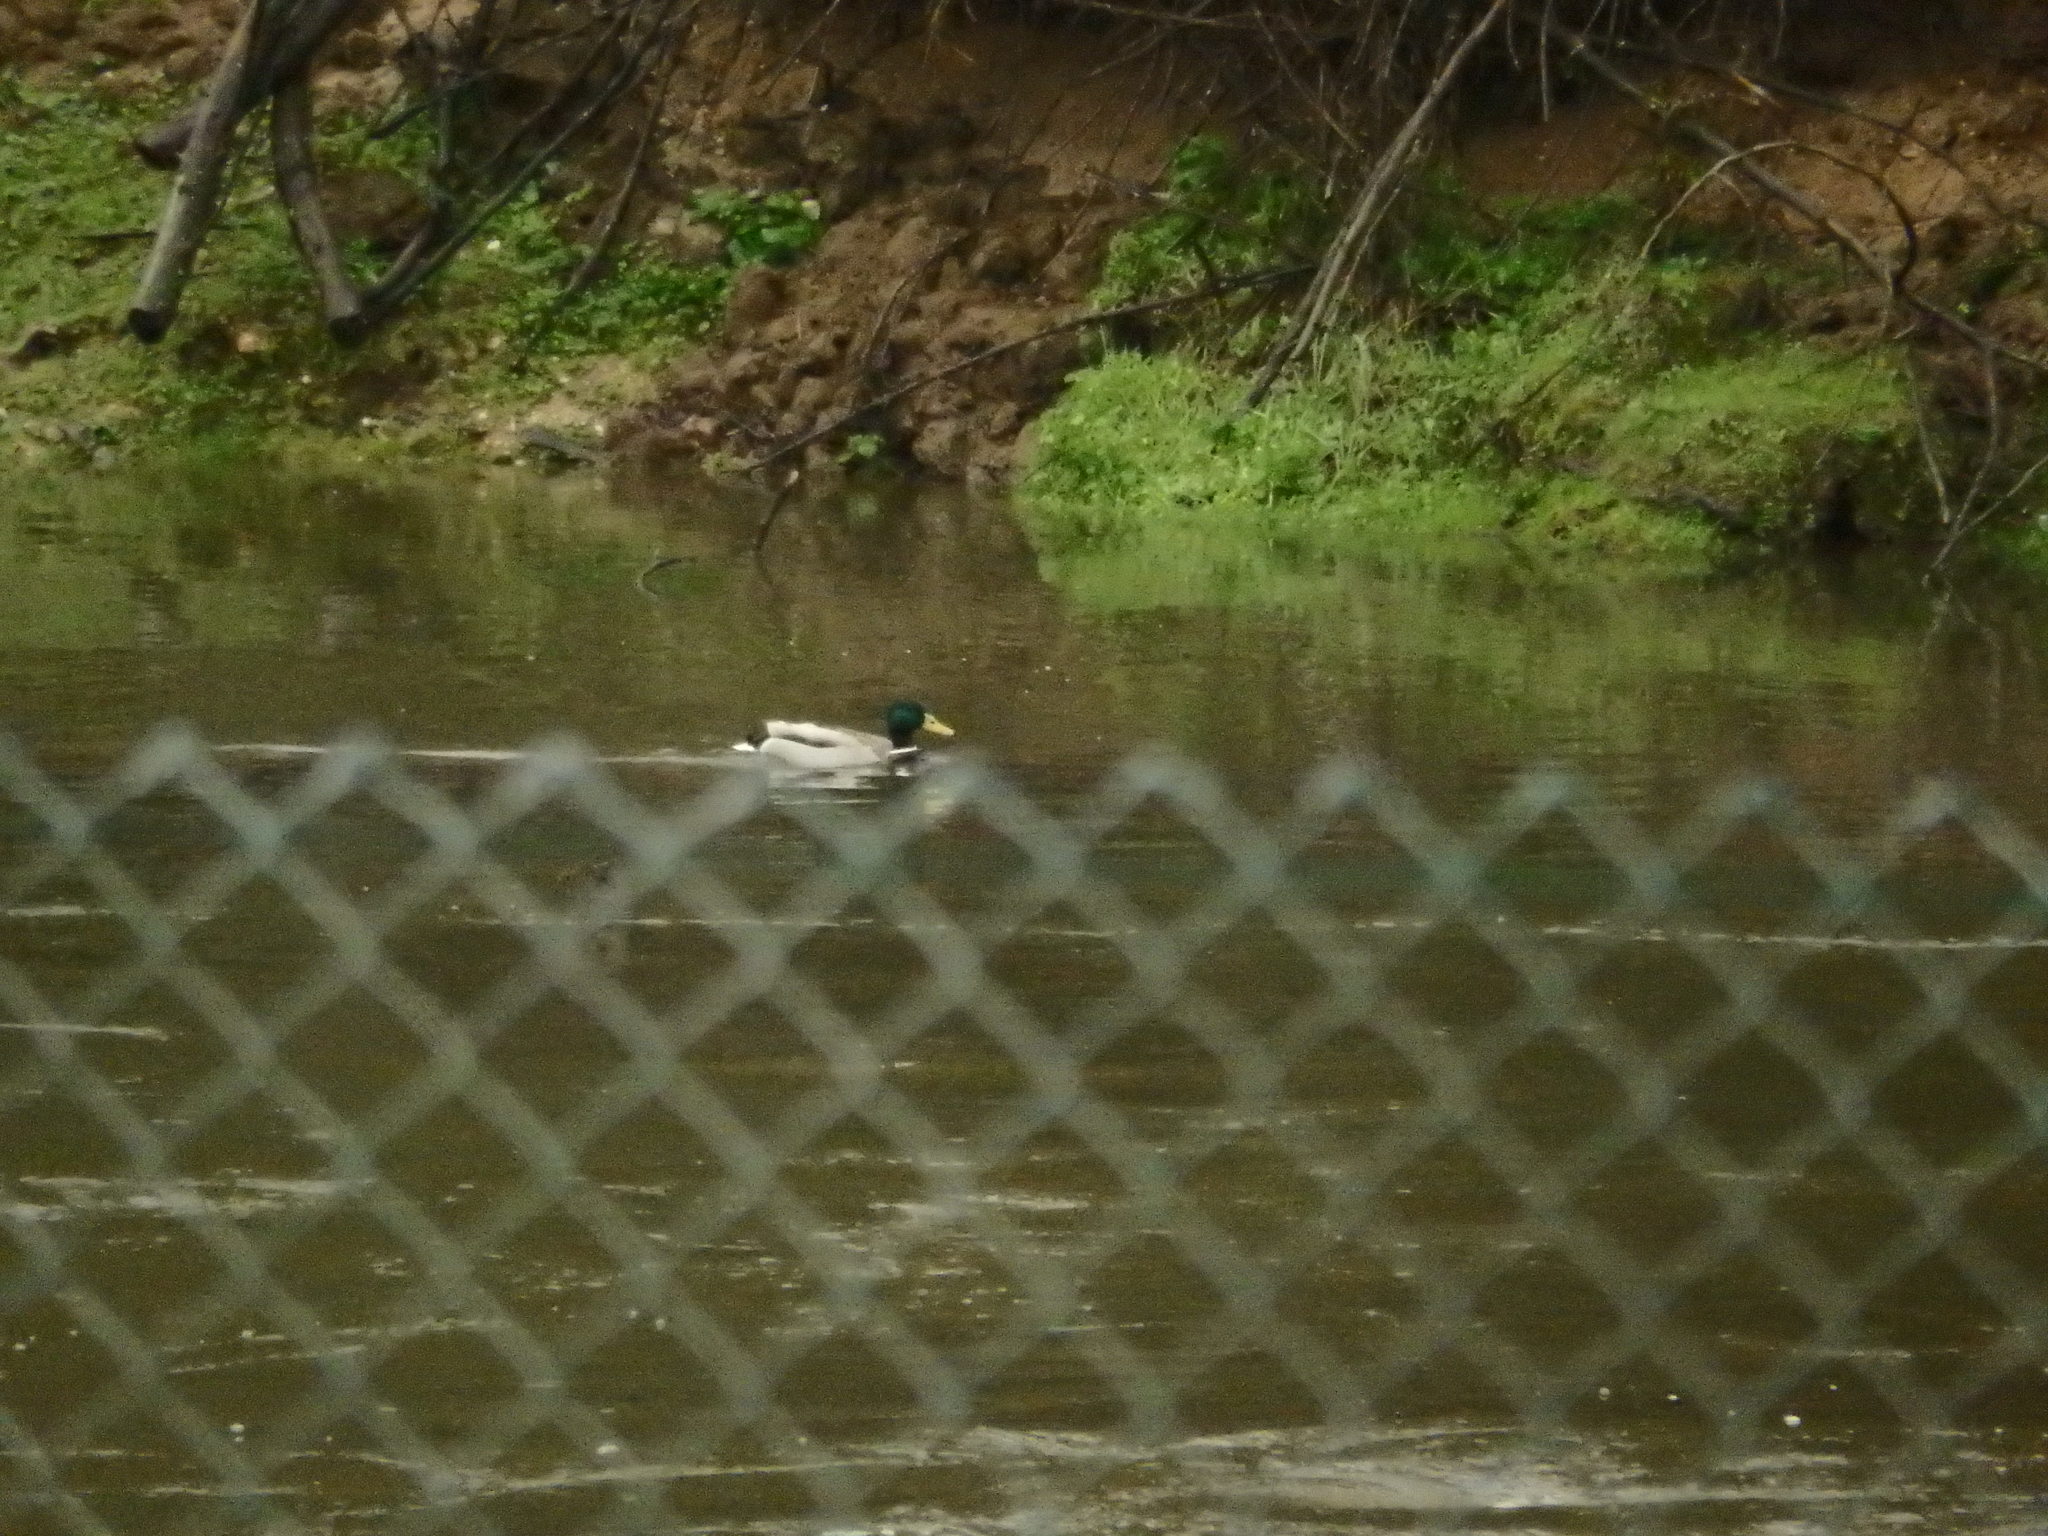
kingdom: Animalia
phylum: Chordata
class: Aves
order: Anseriformes
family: Anatidae
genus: Anas
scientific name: Anas platyrhynchos
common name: Mallard
